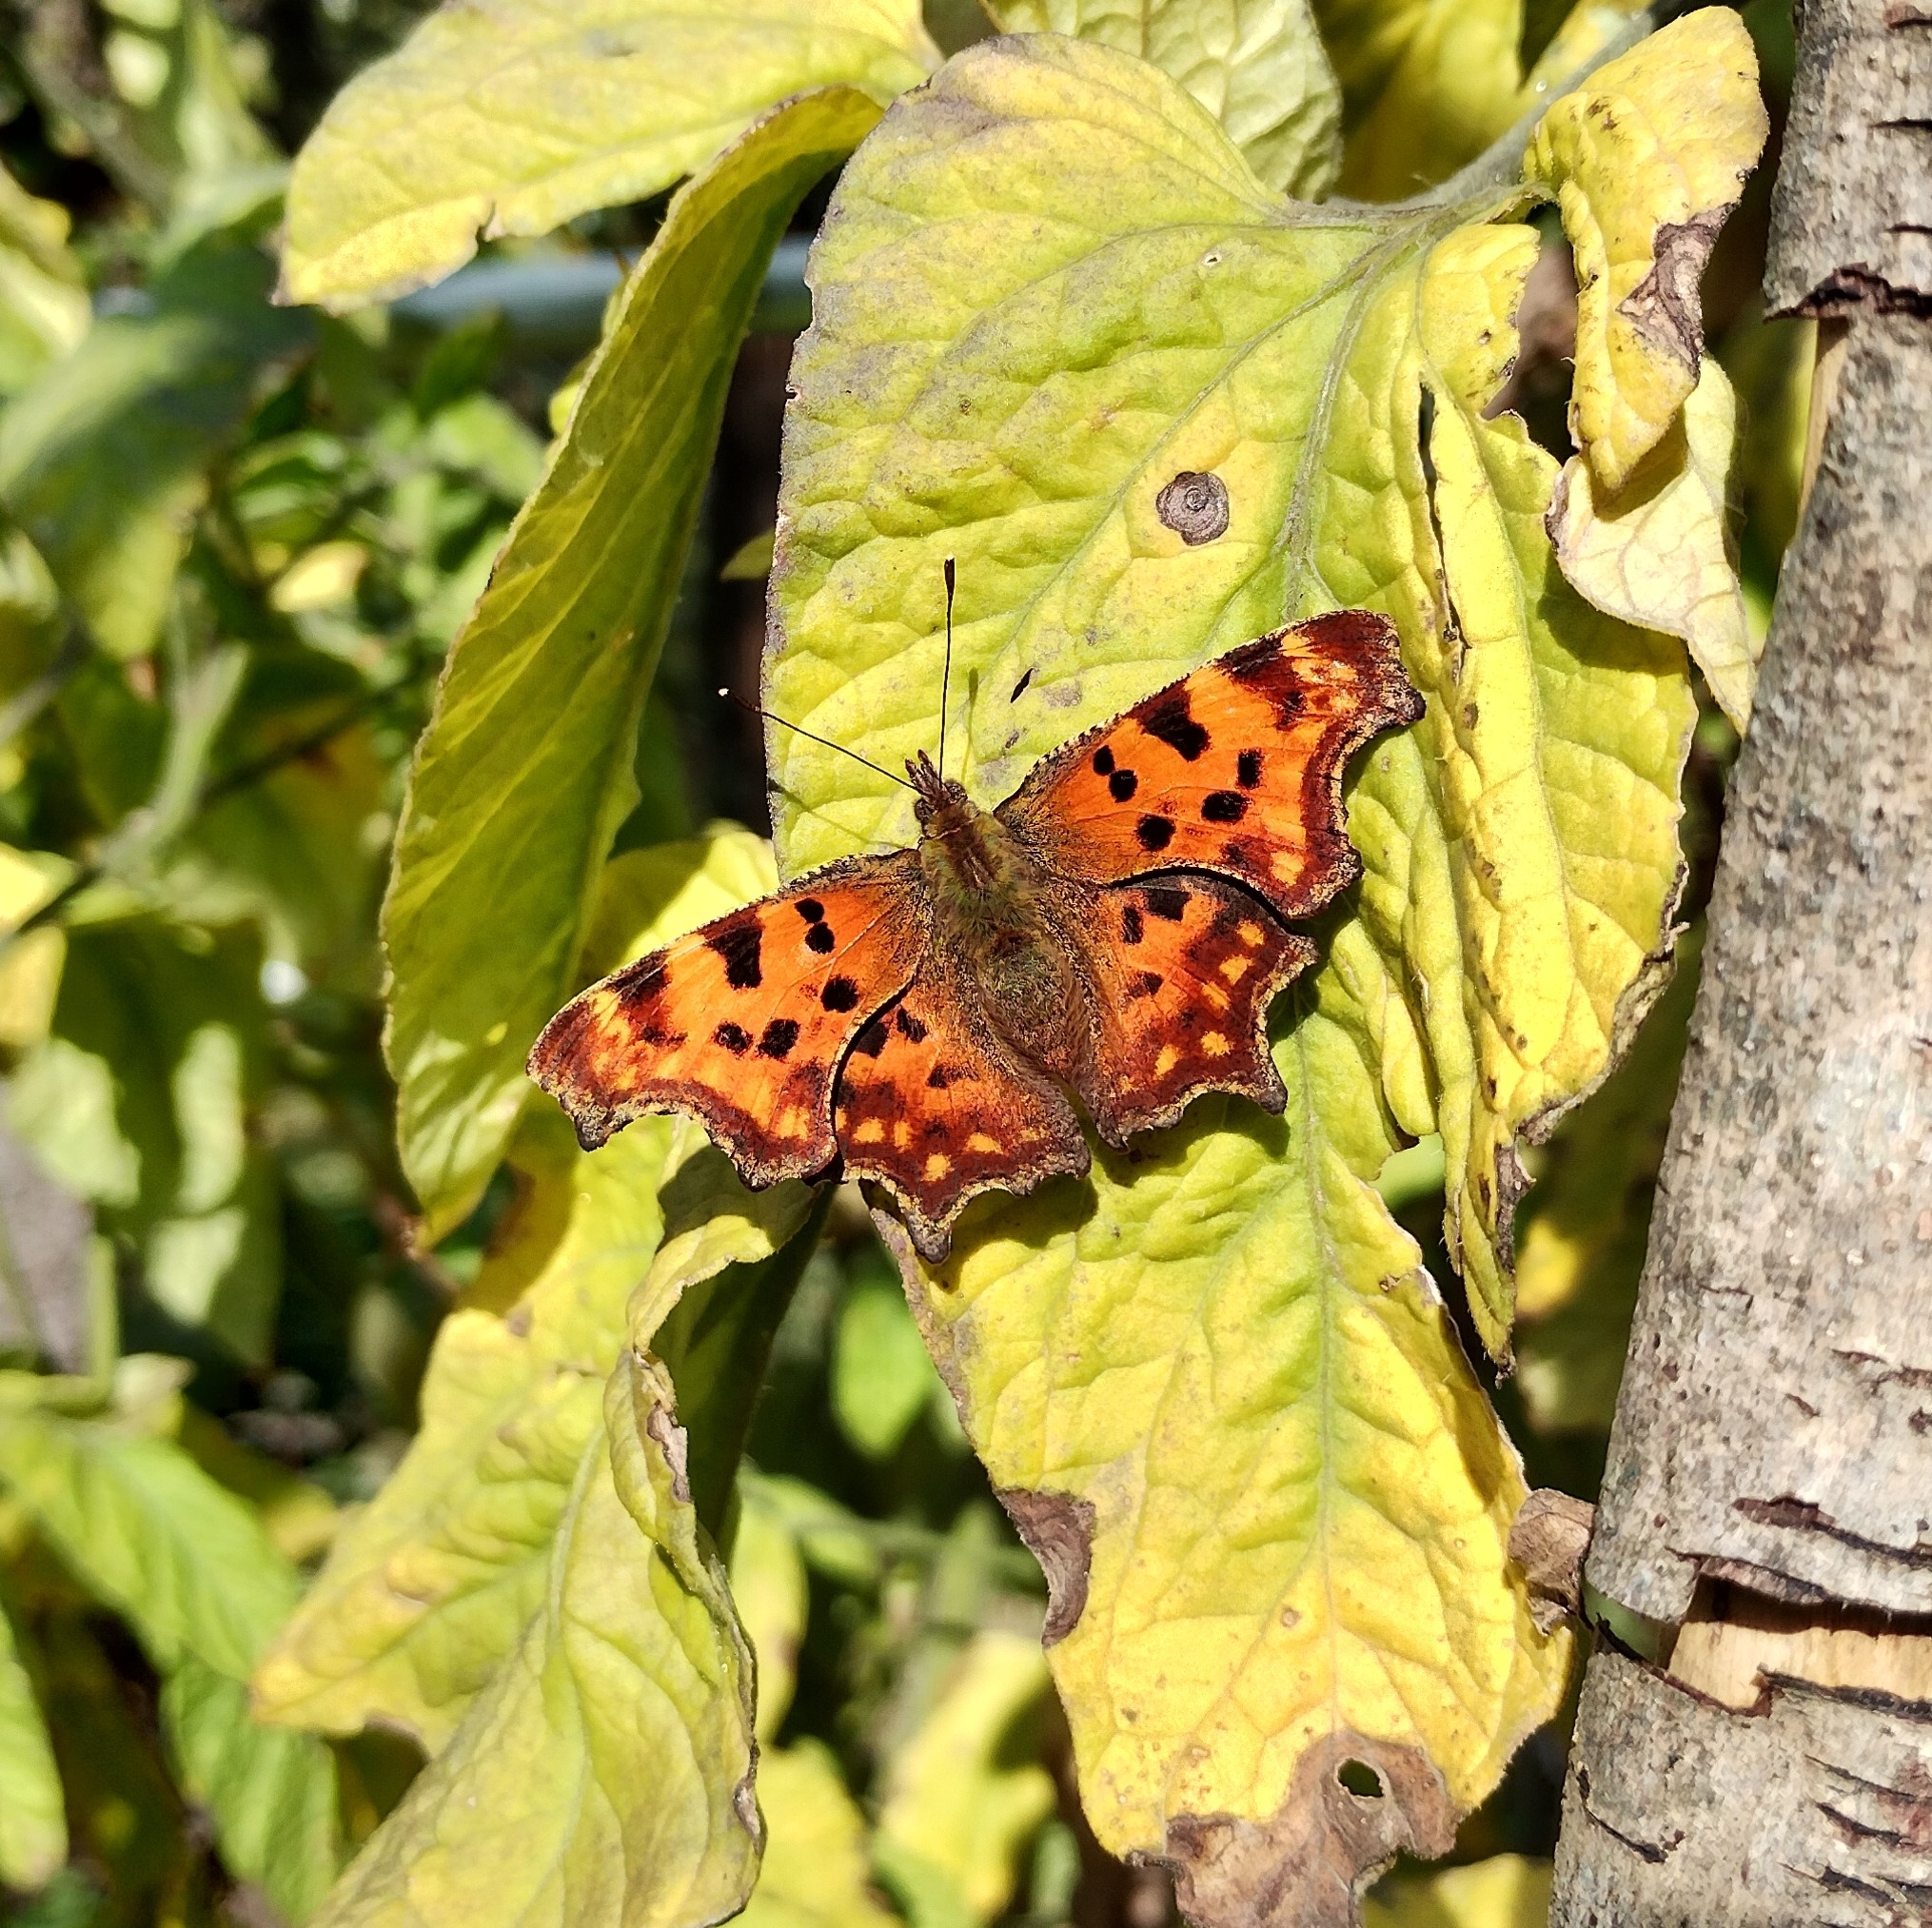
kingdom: Animalia
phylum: Arthropoda
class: Insecta
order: Lepidoptera
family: Nymphalidae
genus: Polygonia
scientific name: Polygonia c-album
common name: Comma
